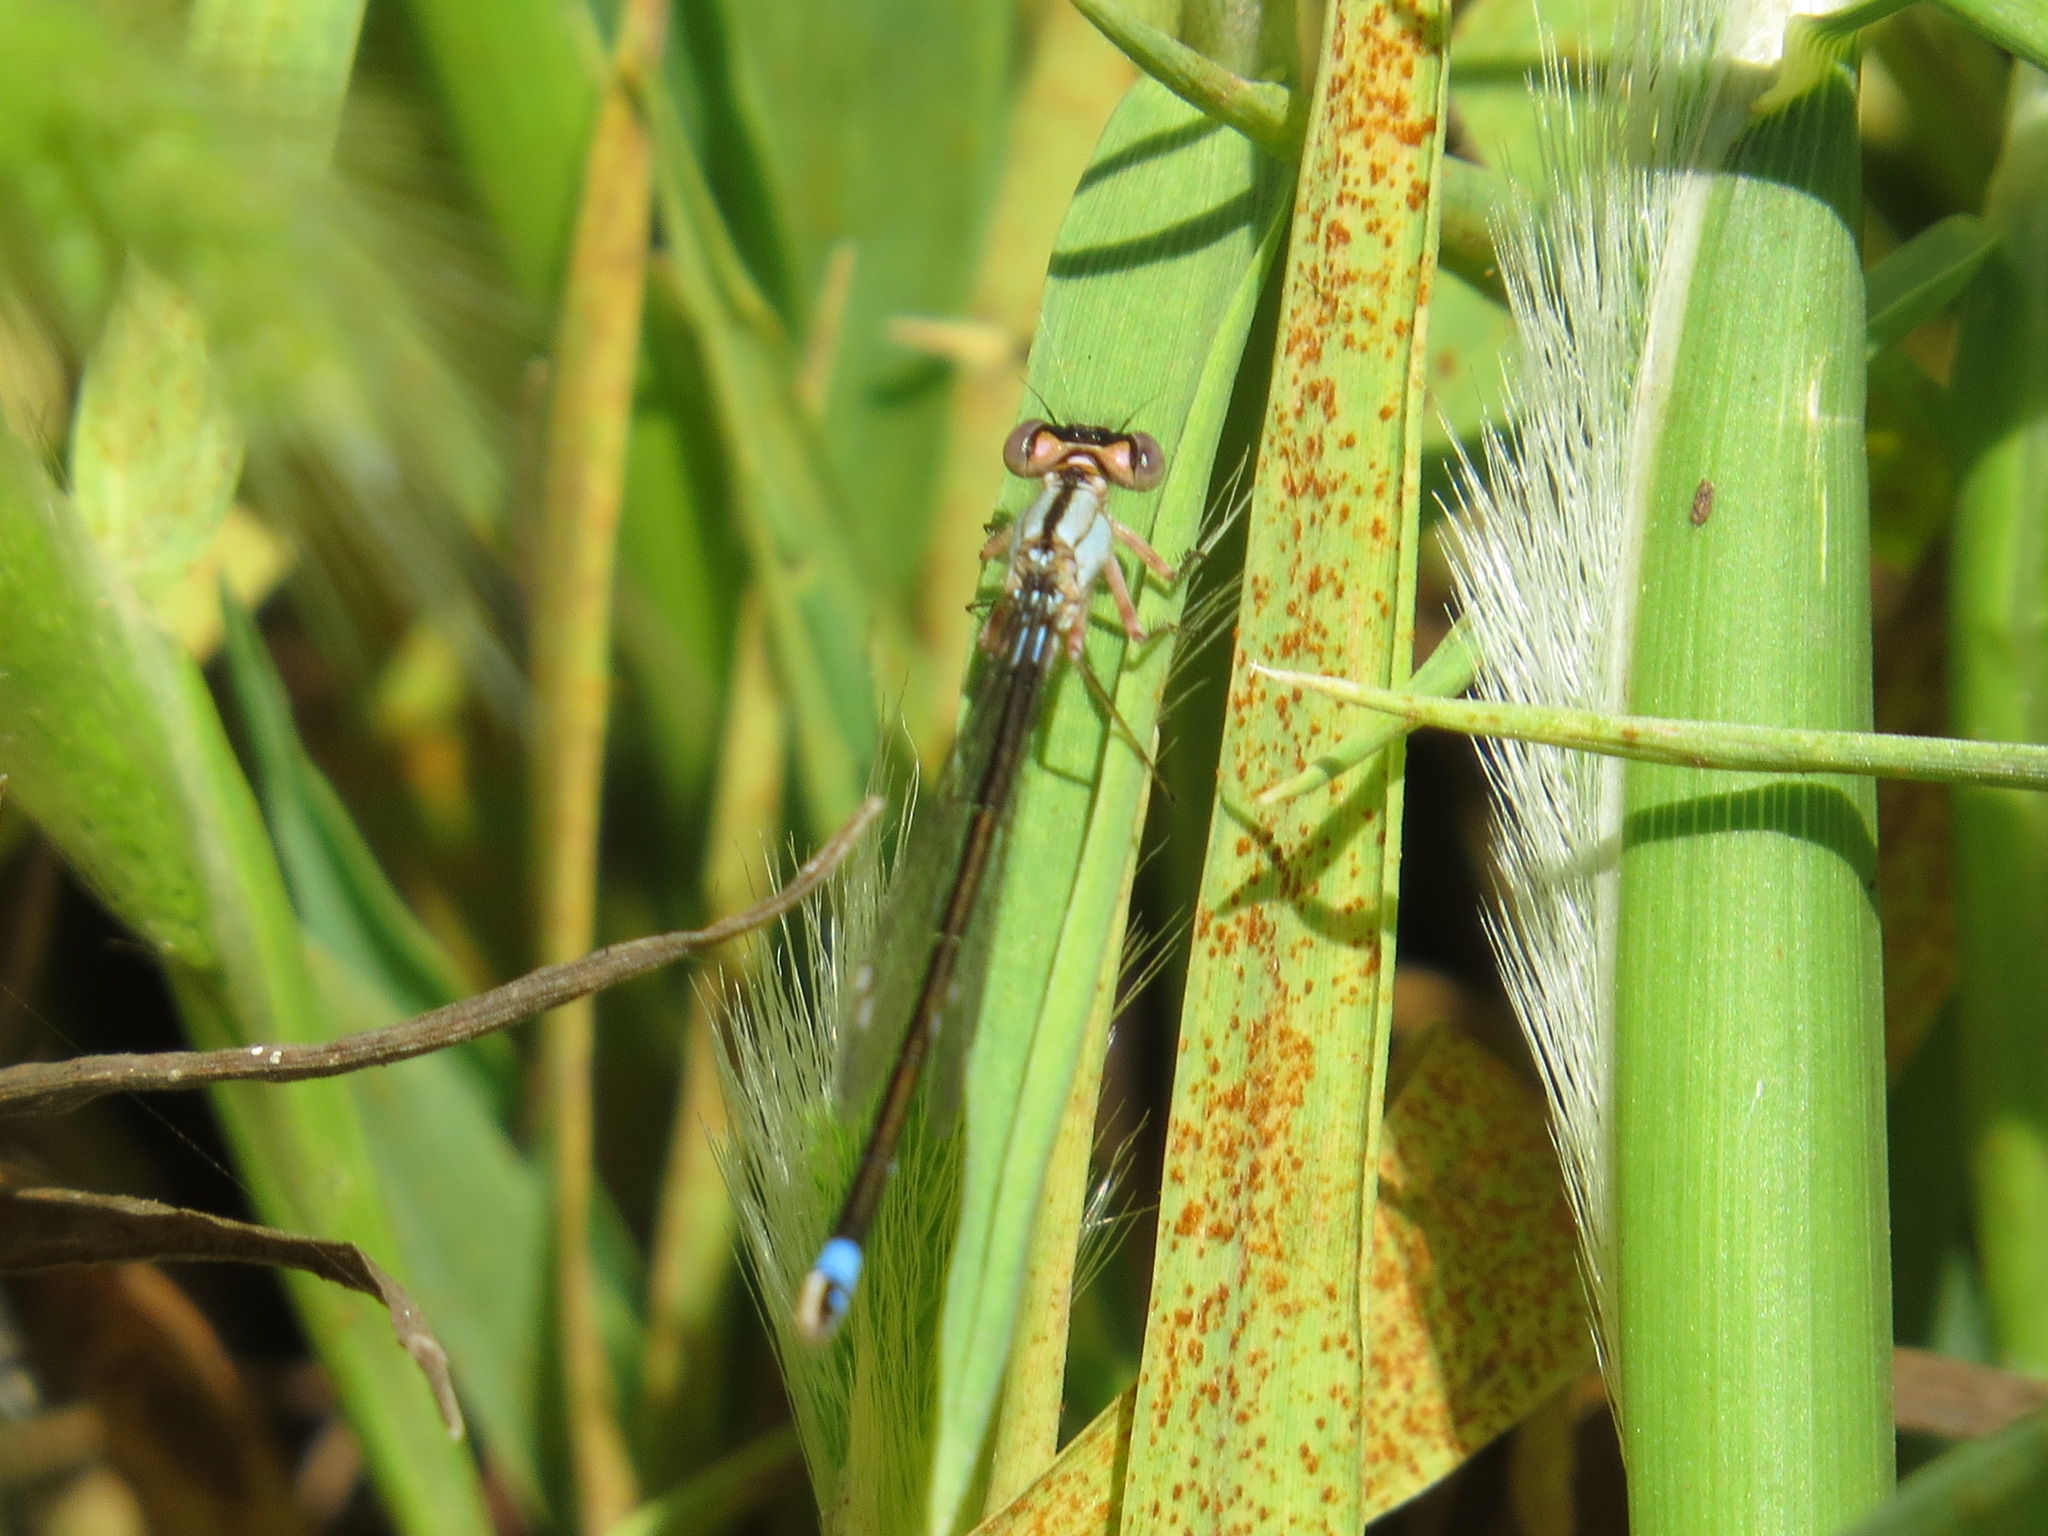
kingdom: Animalia
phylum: Arthropoda
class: Insecta
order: Odonata
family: Coenagrionidae
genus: Ischnura
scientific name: Ischnura cervula
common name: Pacific forktail
